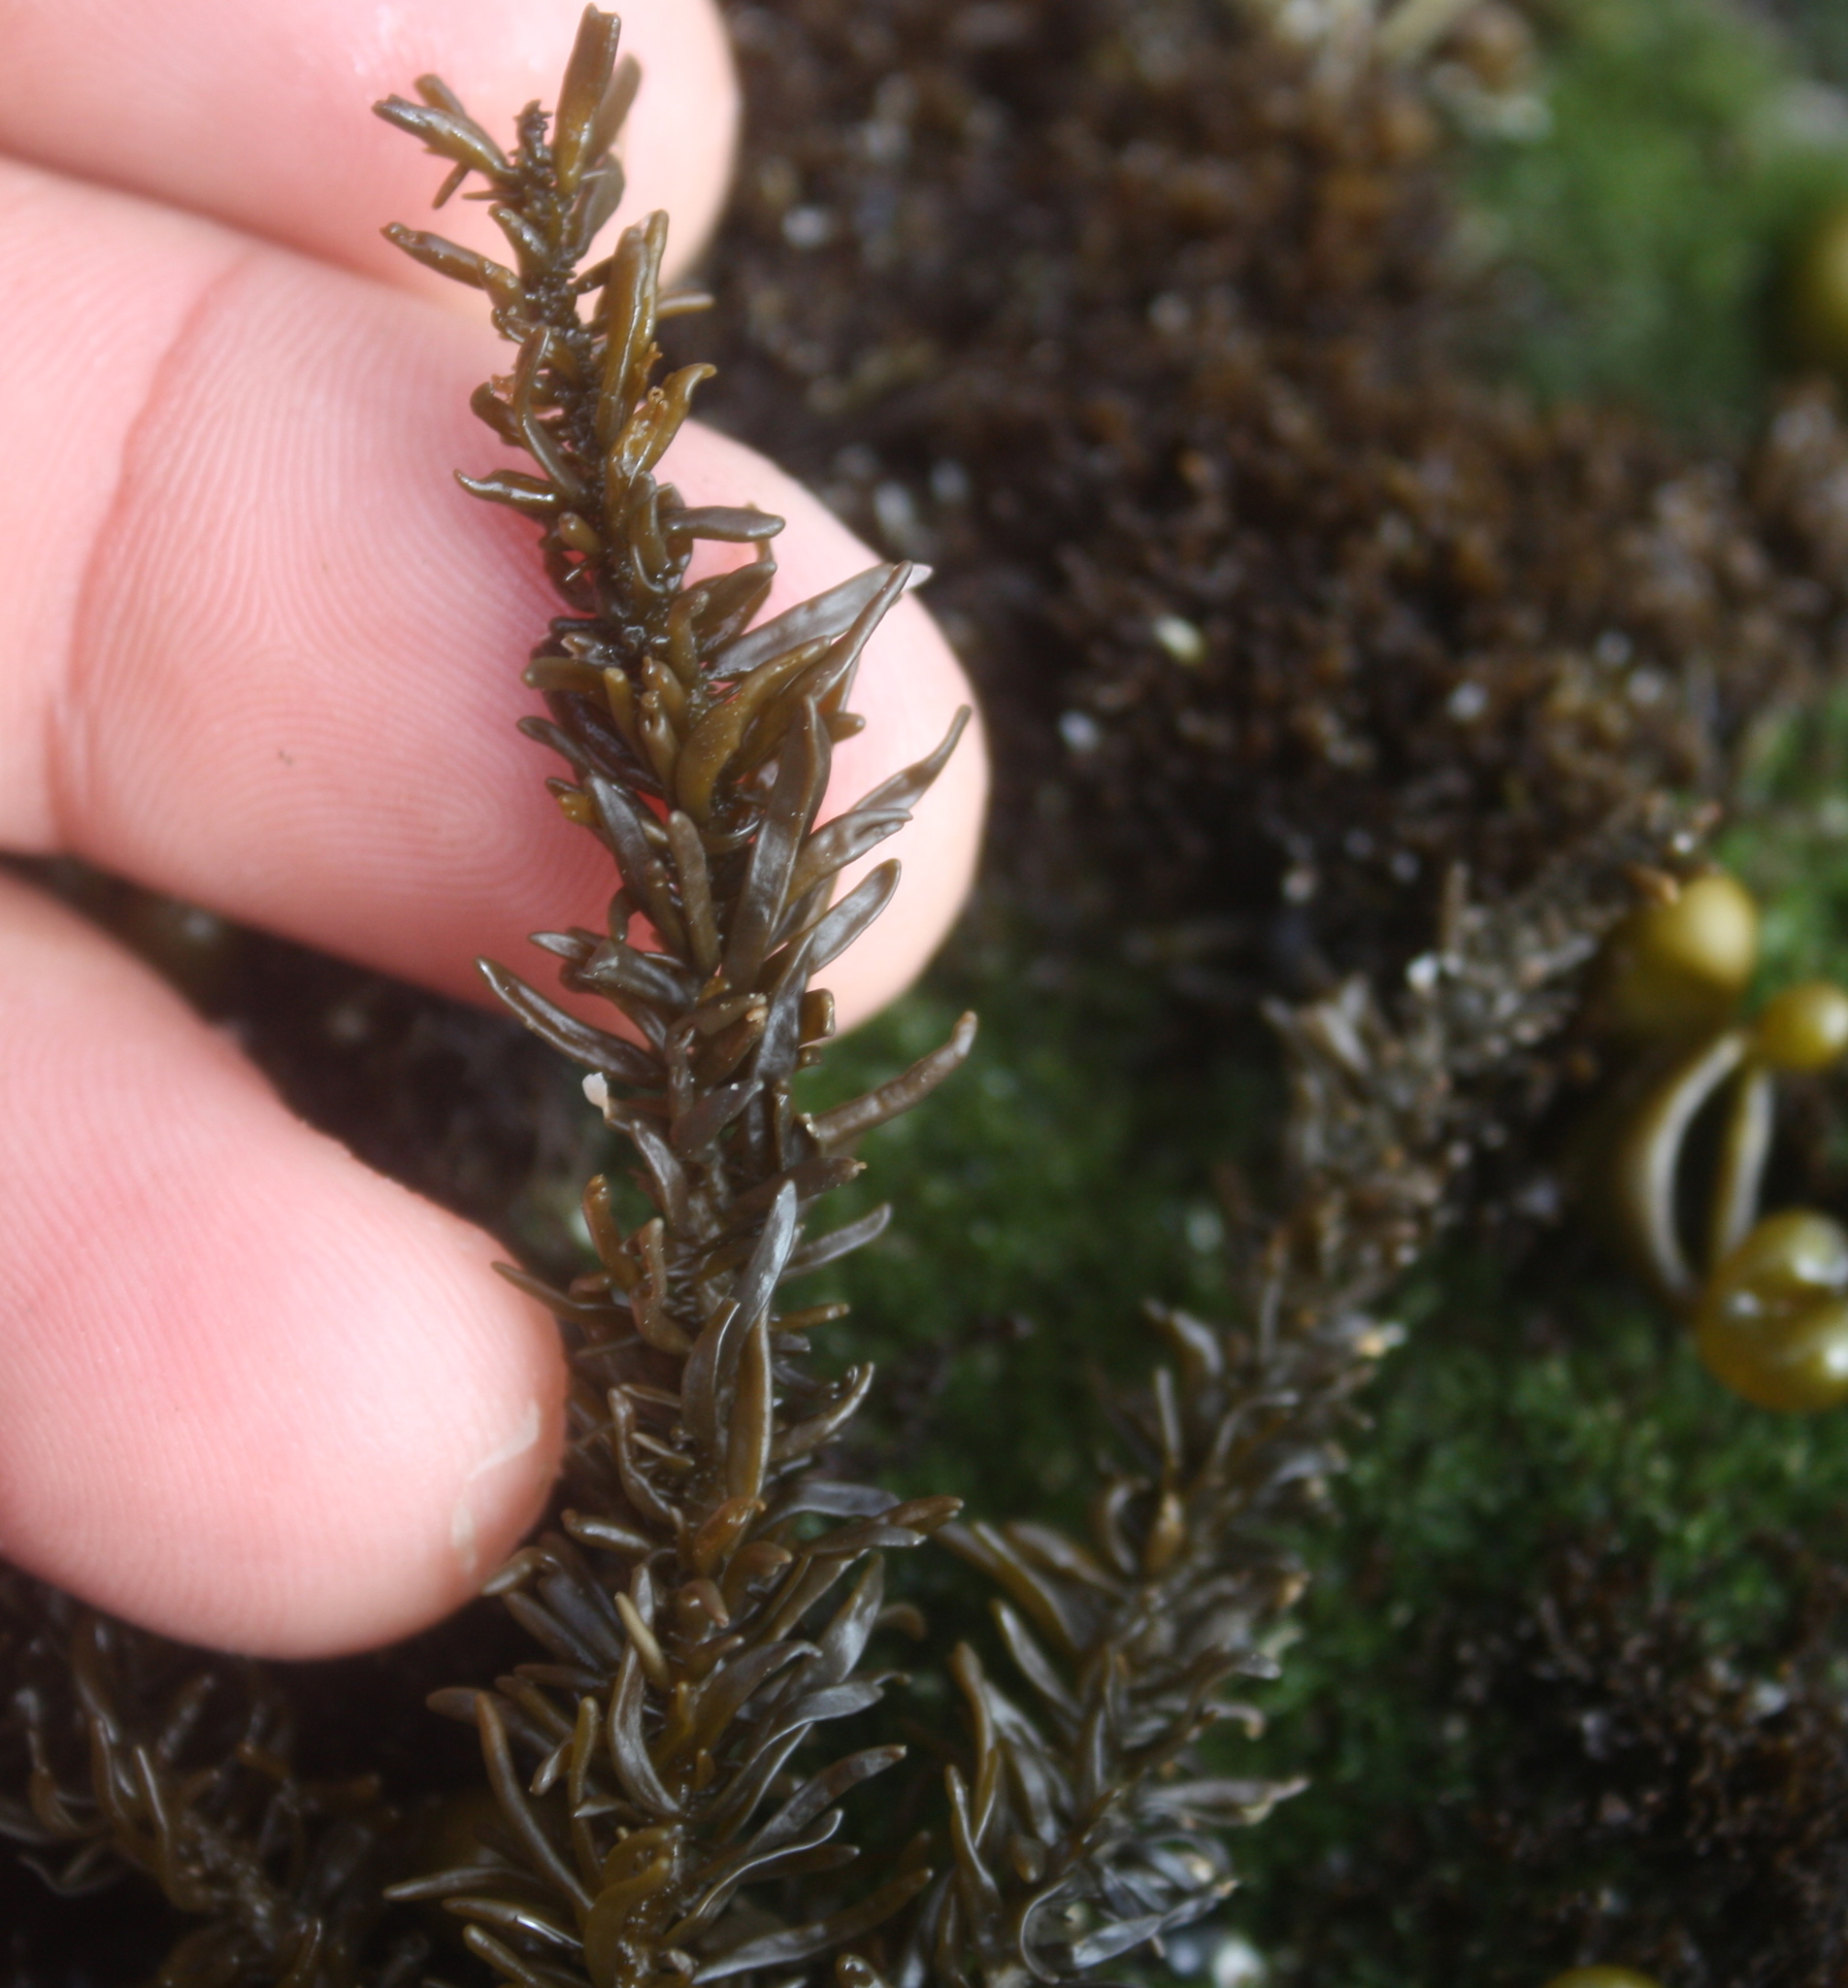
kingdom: Chromista
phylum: Ochrophyta
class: Phaeophyceae
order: Scytosiphonales
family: Scytosiphonaceae
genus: Analipus
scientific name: Analipus japonicus
